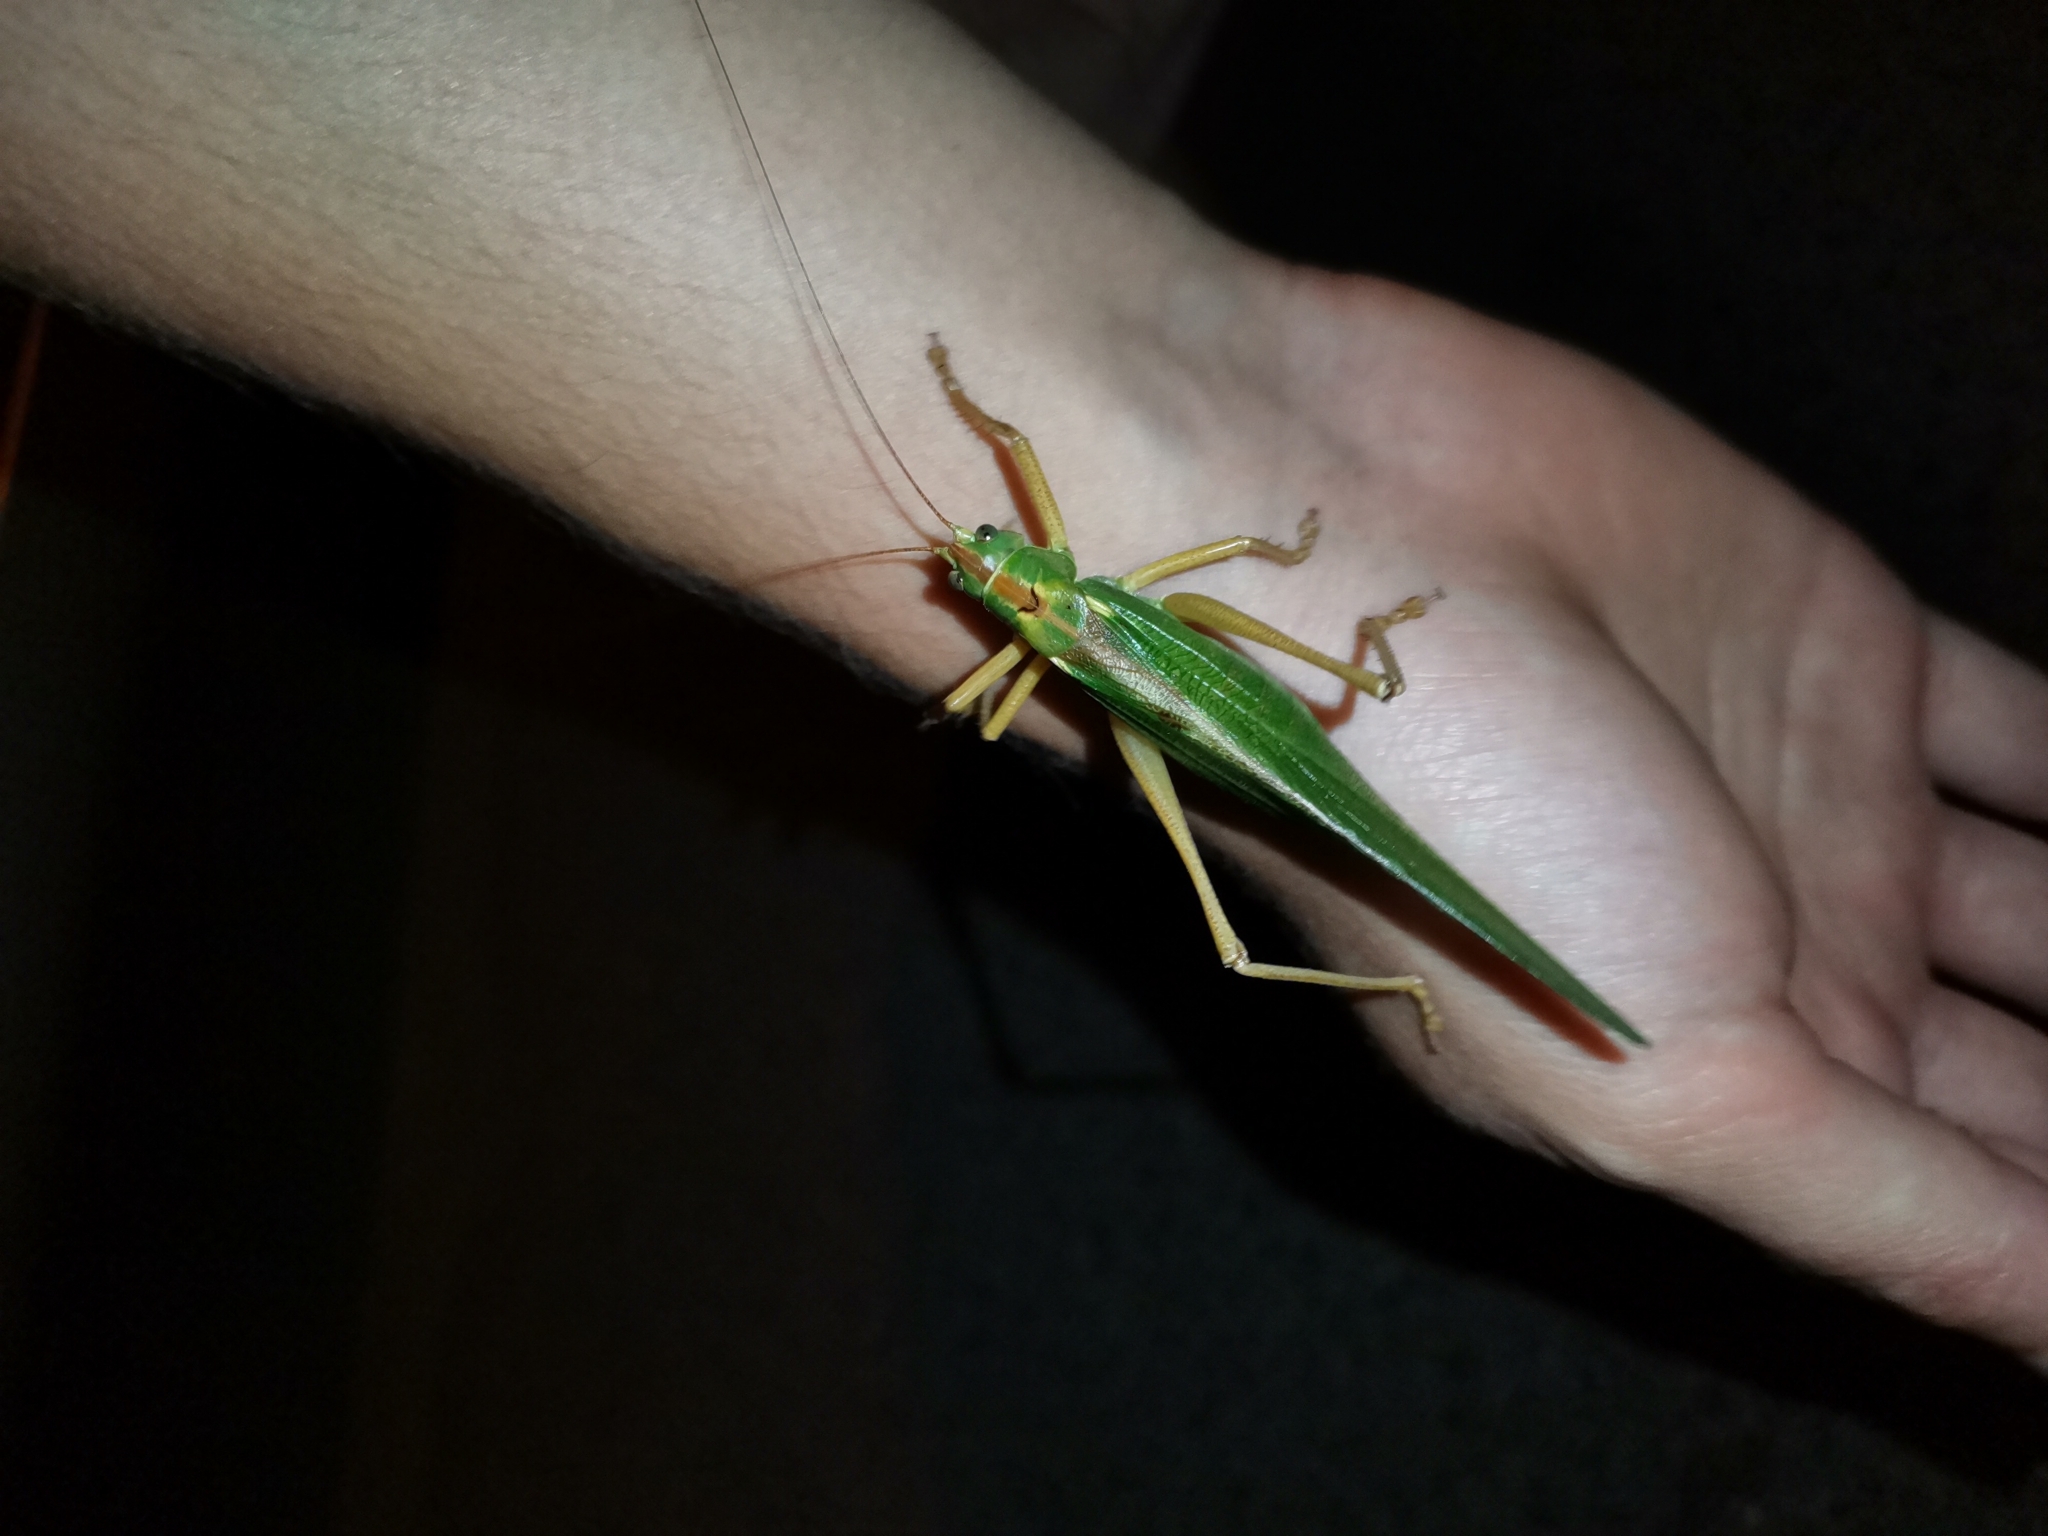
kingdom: Animalia
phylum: Arthropoda
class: Insecta
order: Orthoptera
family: Tettigoniidae
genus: Tettigonia
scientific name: Tettigonia viridissima
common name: Great green bush-cricket
